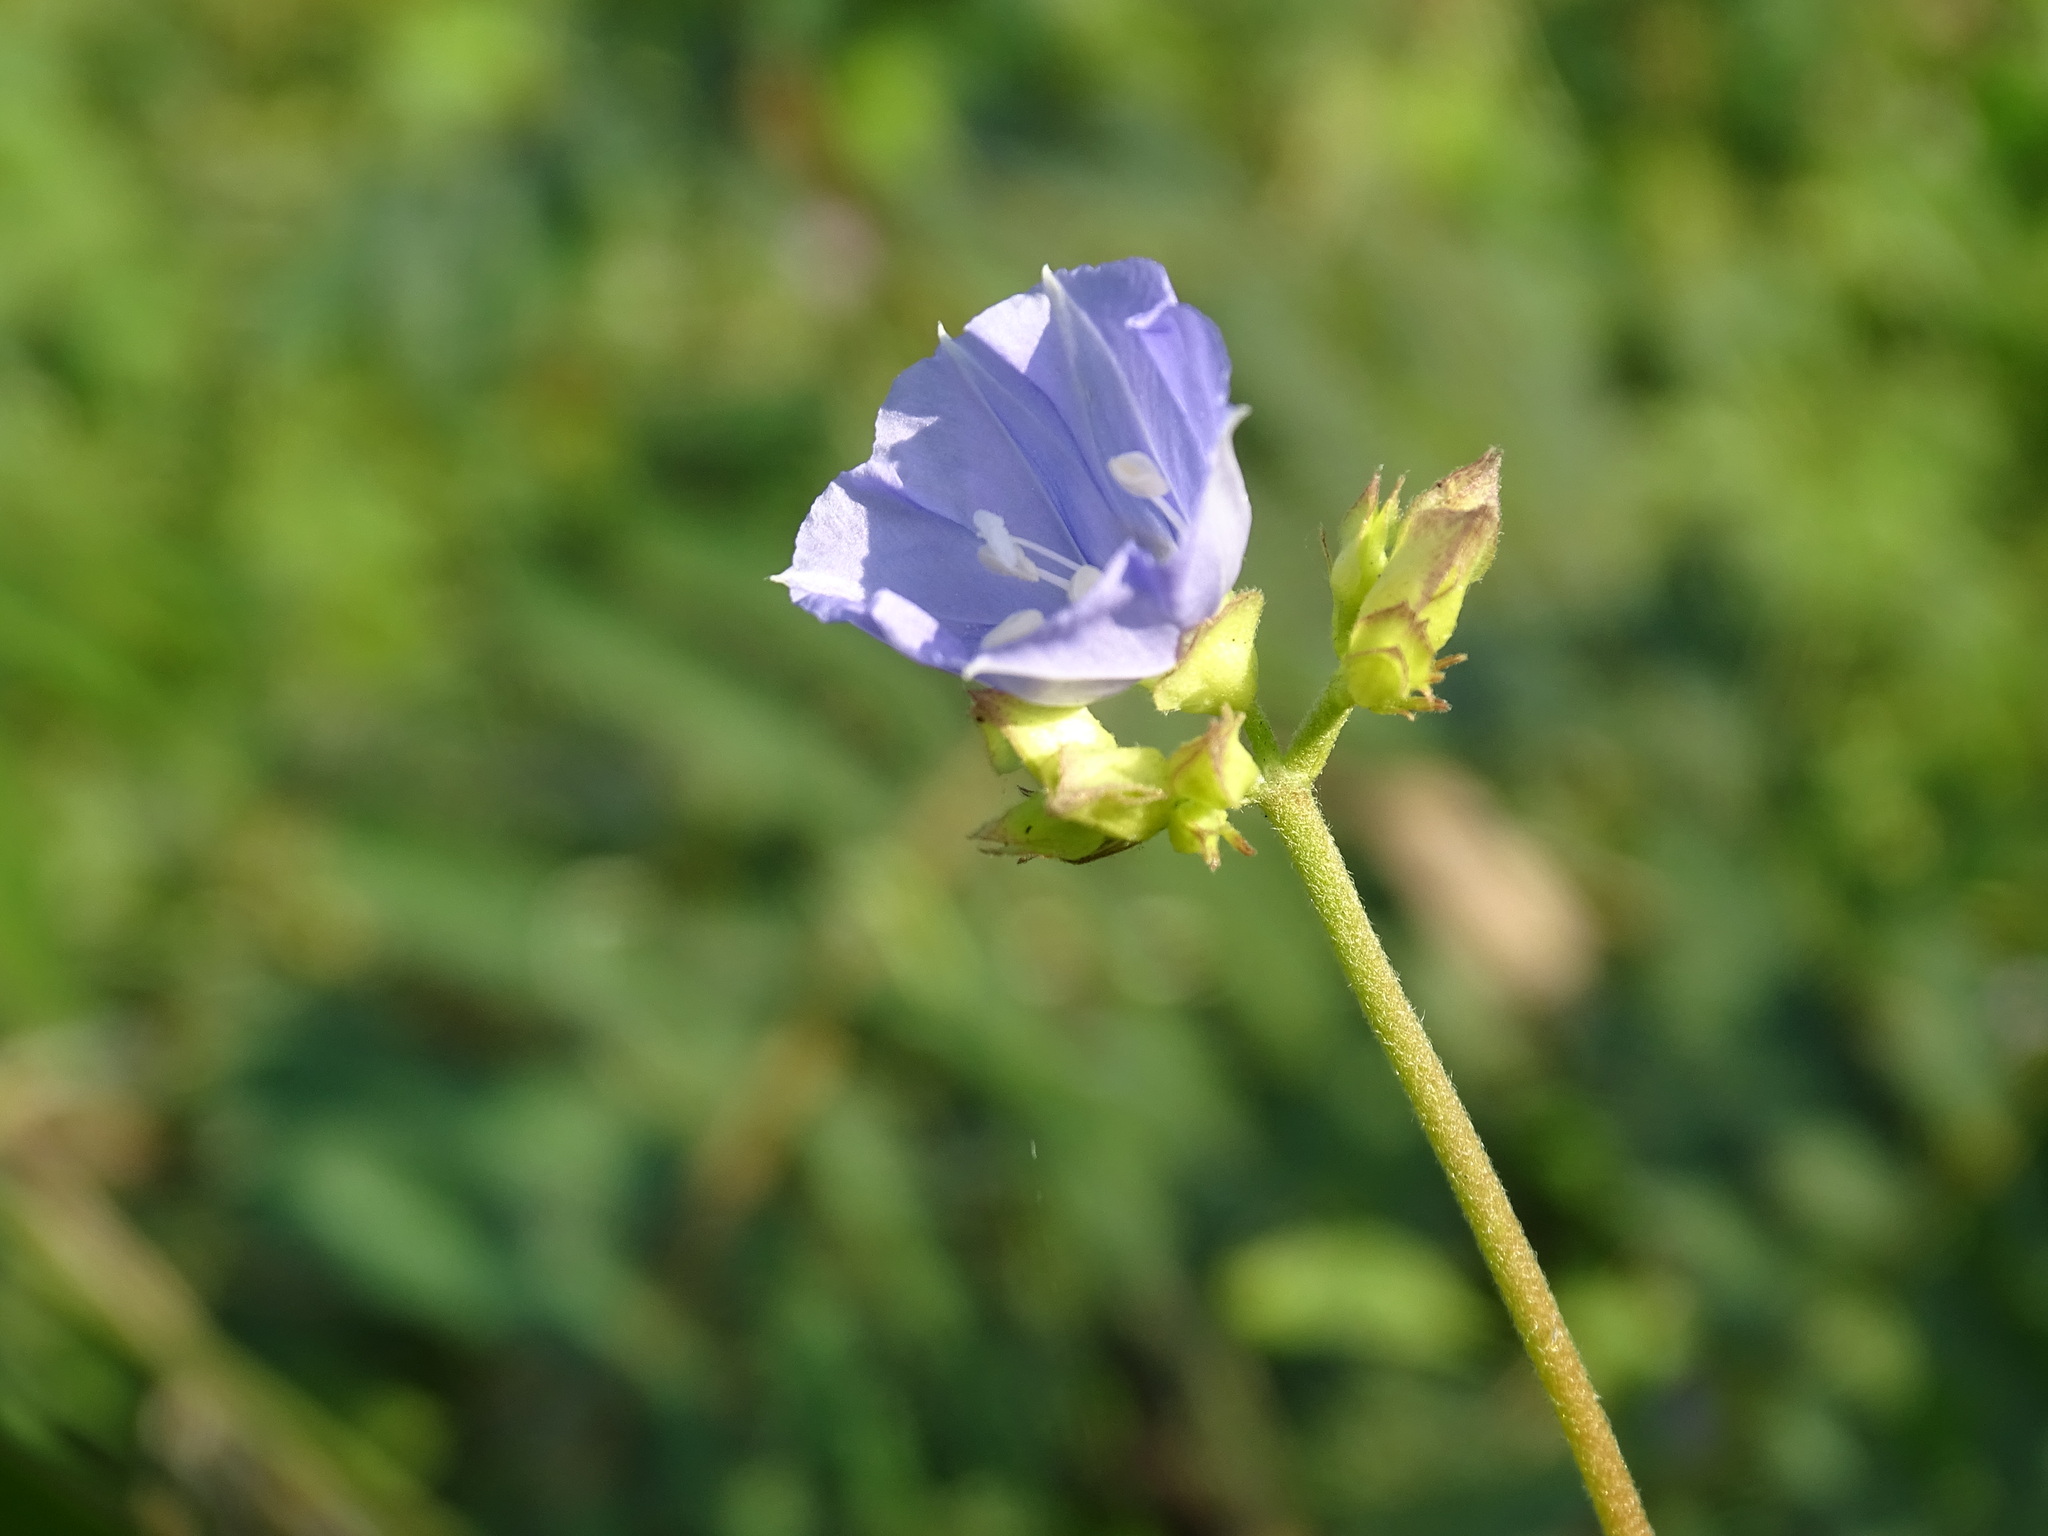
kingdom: Plantae
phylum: Tracheophyta
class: Magnoliopsida
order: Solanales
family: Convolvulaceae
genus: Jacquemontia
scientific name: Jacquemontia oaxacana
